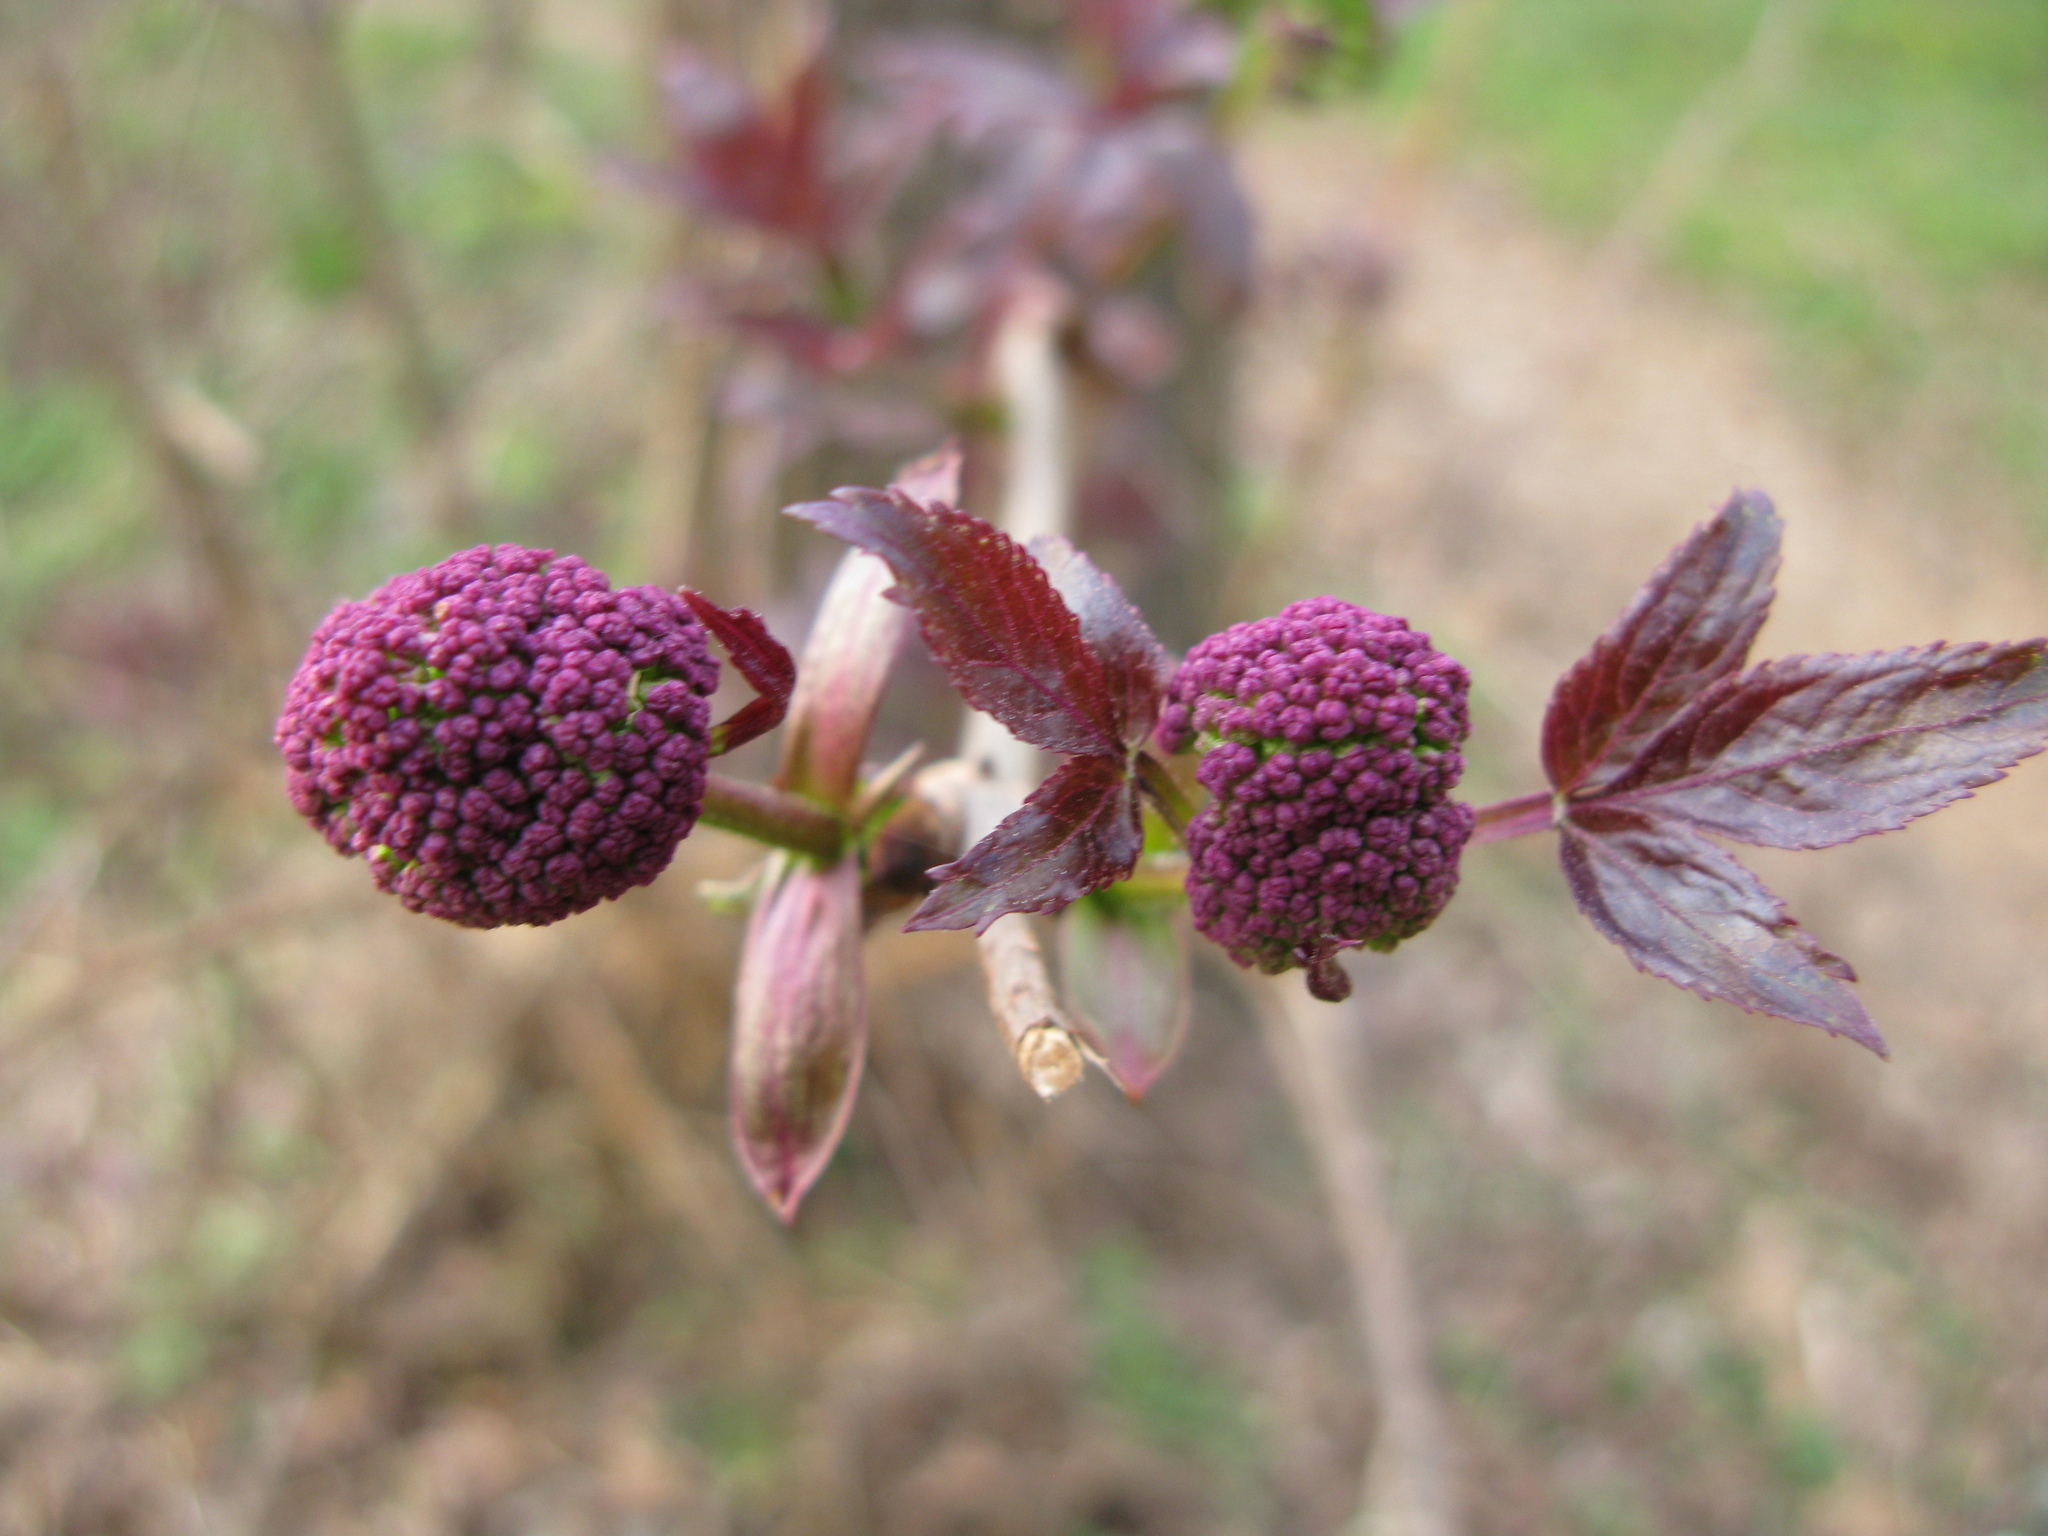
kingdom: Plantae
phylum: Tracheophyta
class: Magnoliopsida
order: Dipsacales
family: Viburnaceae
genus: Sambucus
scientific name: Sambucus racemosa
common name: Red-berried elder
